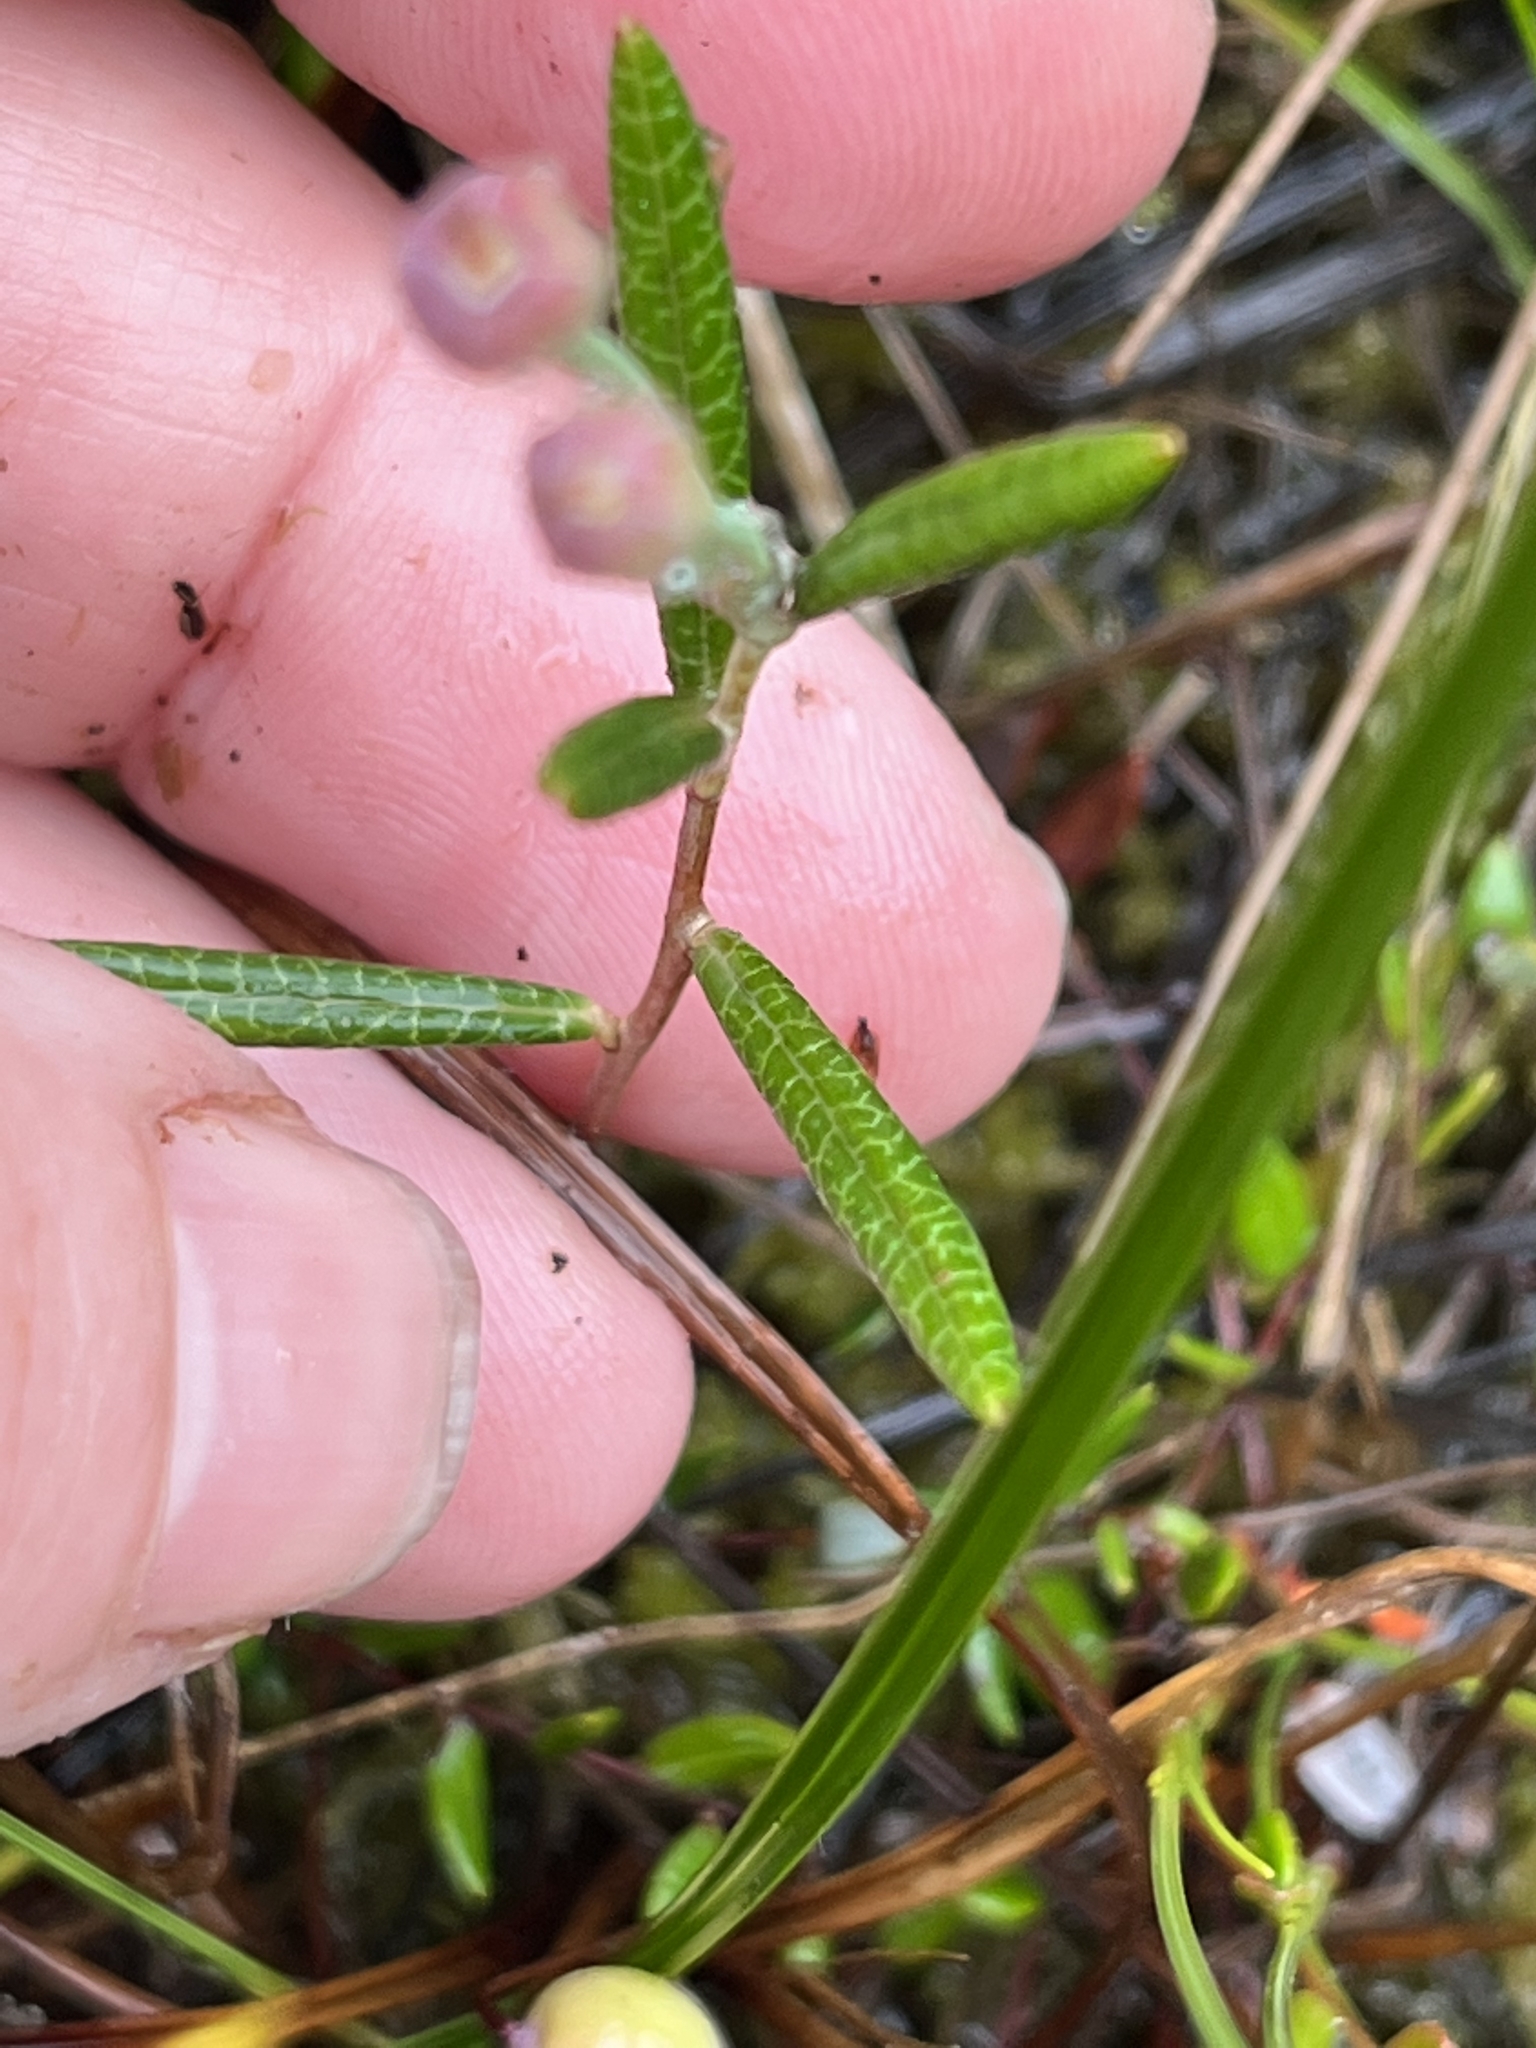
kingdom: Plantae
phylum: Tracheophyta
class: Magnoliopsida
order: Ericales
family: Ericaceae
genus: Andromeda
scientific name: Andromeda polifolia
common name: Bog-rosemary
